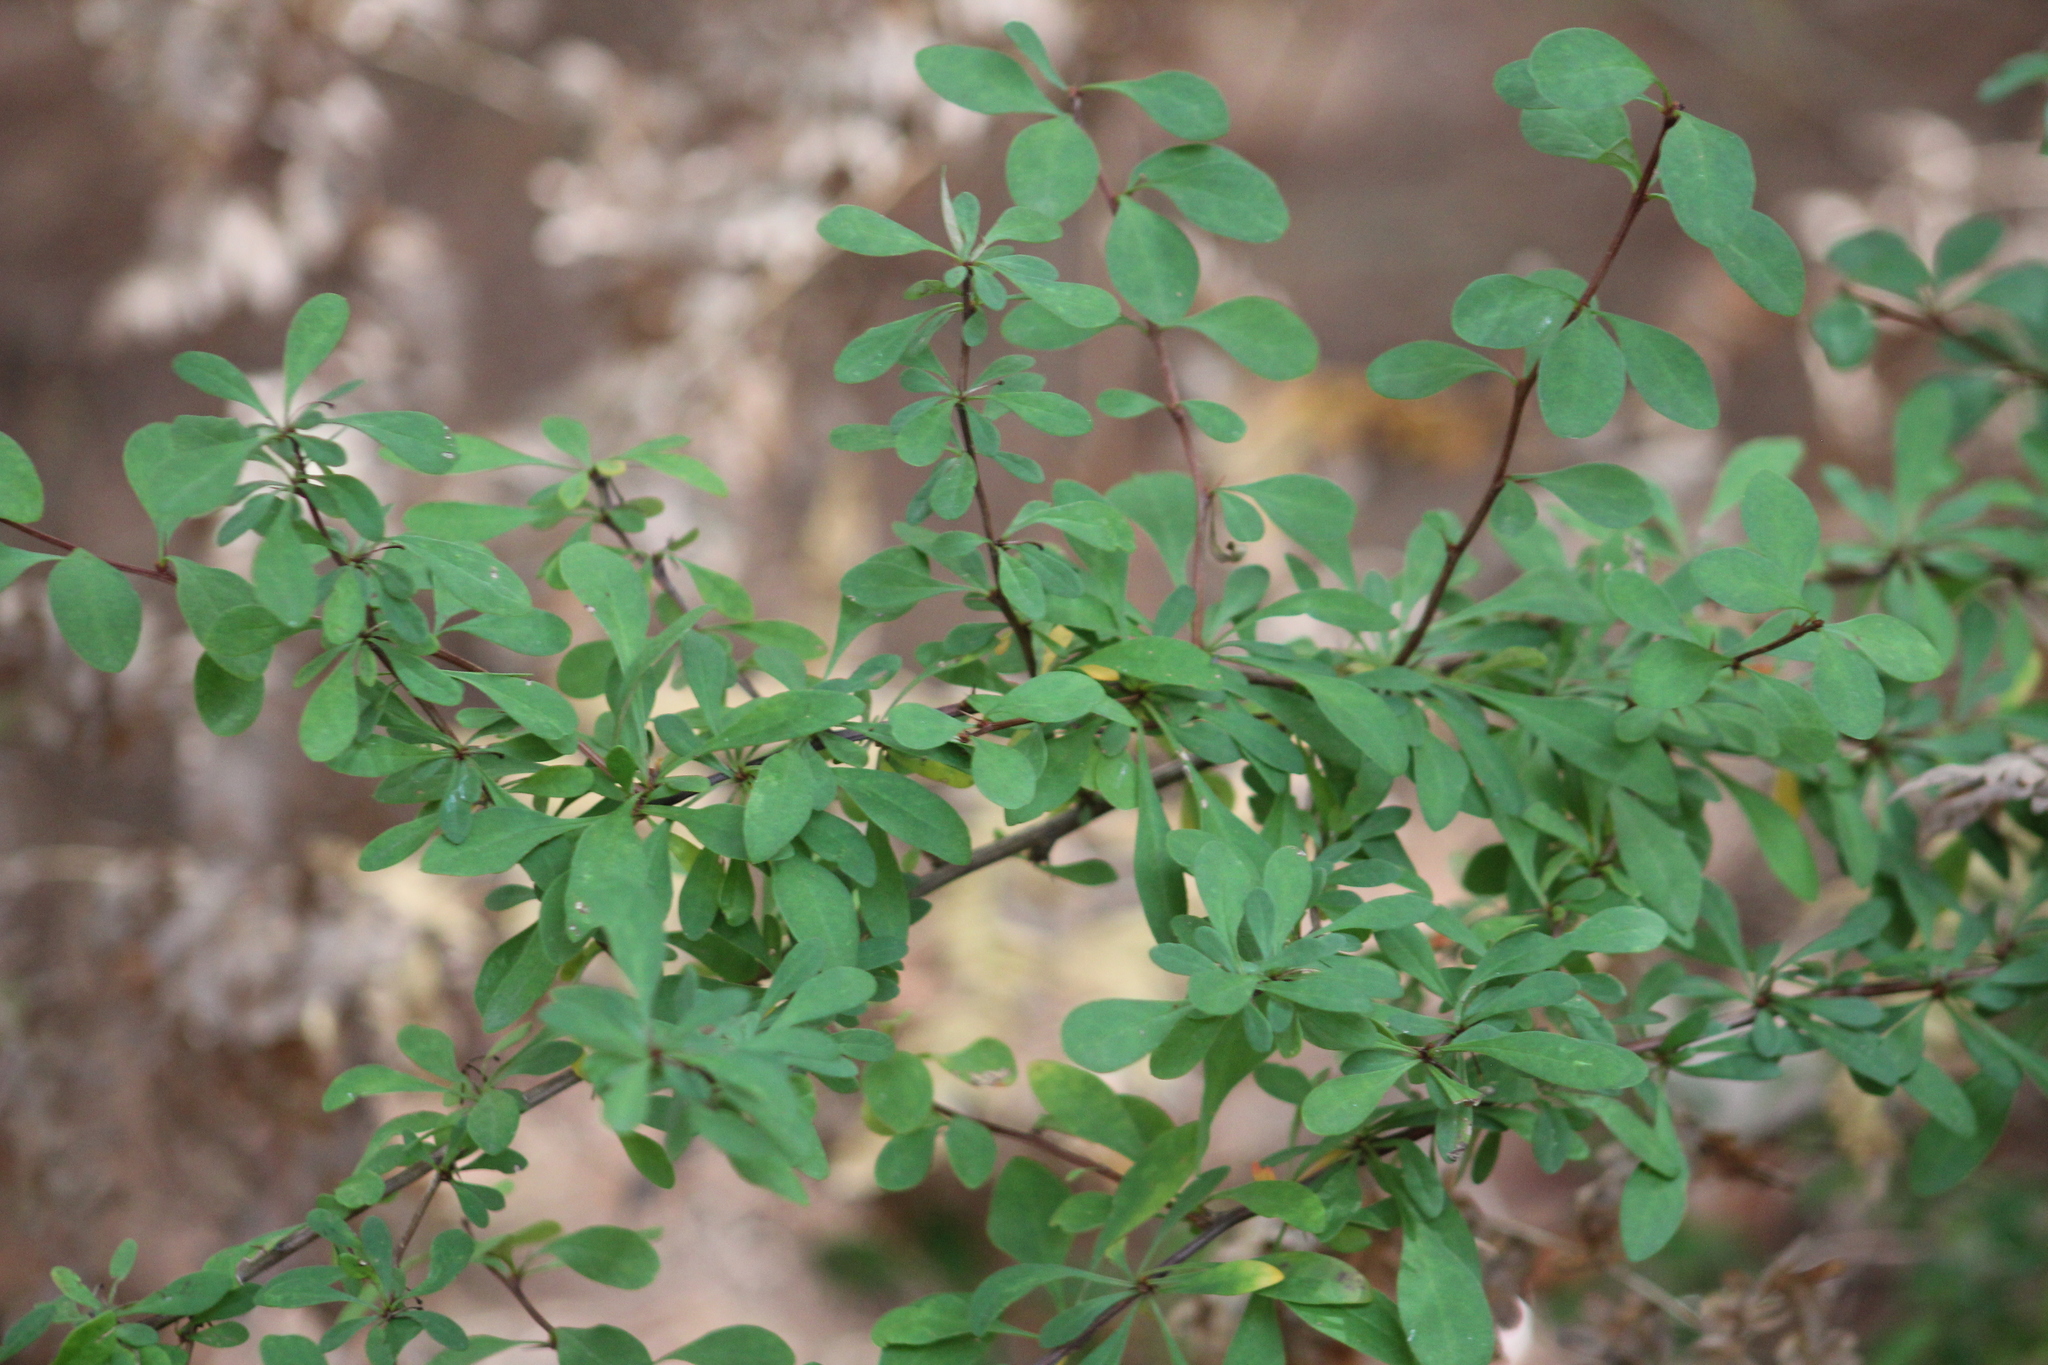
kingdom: Plantae
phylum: Tracheophyta
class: Magnoliopsida
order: Ranunculales
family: Berberidaceae
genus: Berberis
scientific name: Berberis thunbergii
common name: Japanese barberry
